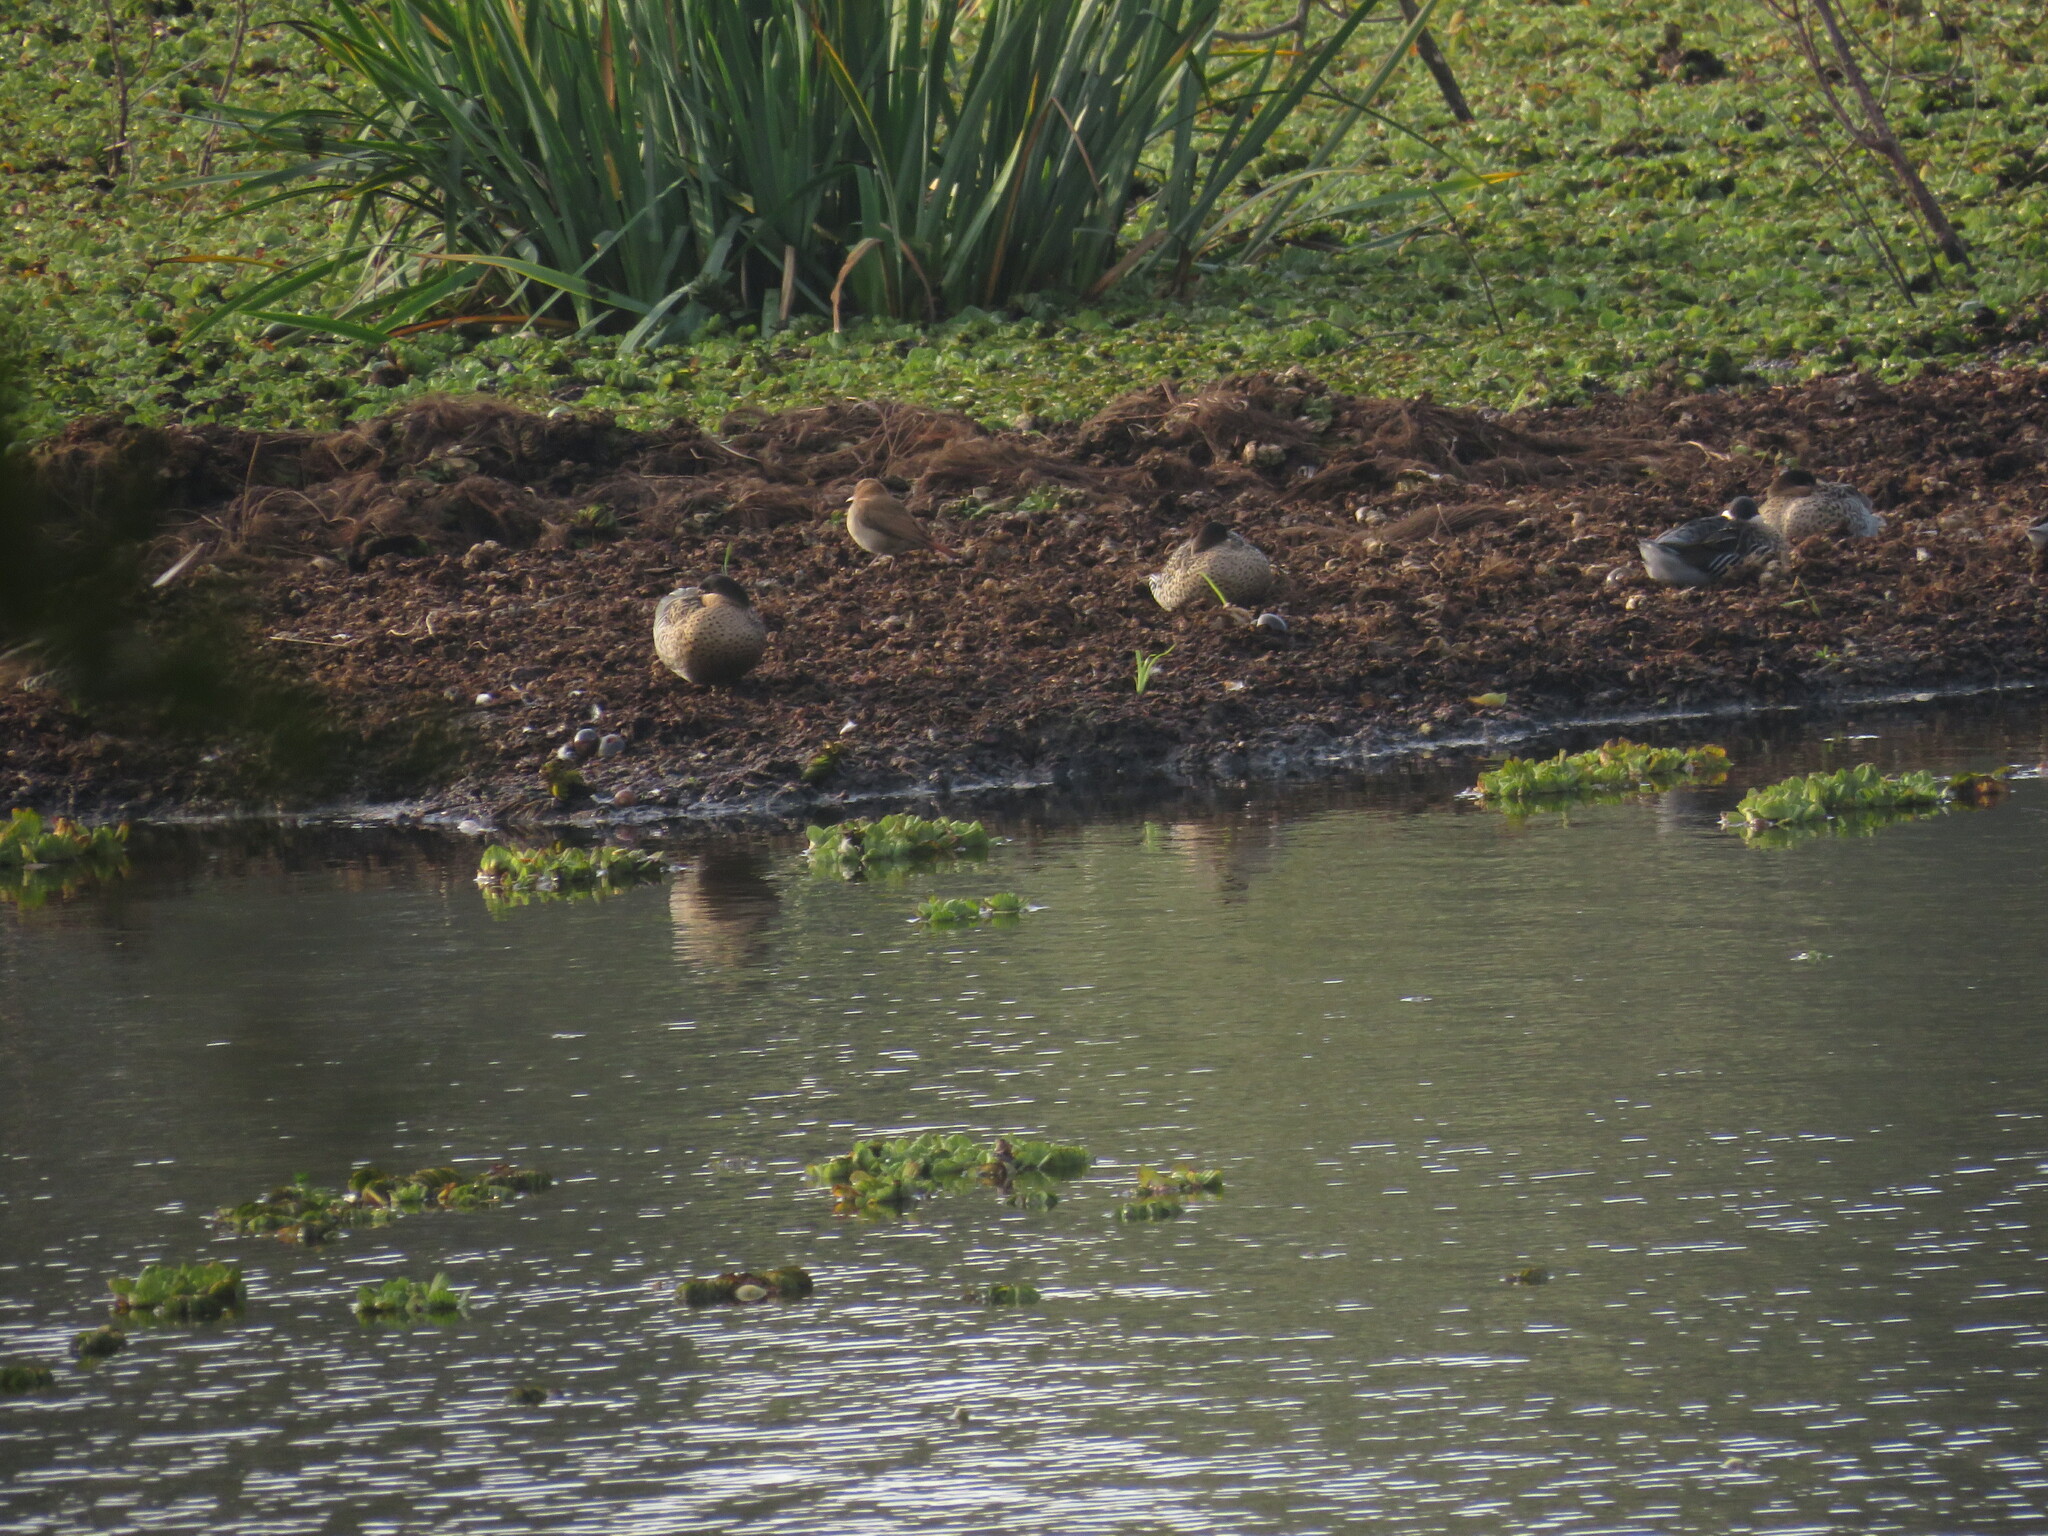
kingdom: Animalia
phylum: Chordata
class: Aves
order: Anseriformes
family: Anatidae
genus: Spatula
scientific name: Spatula versicolor
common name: Silver teal
